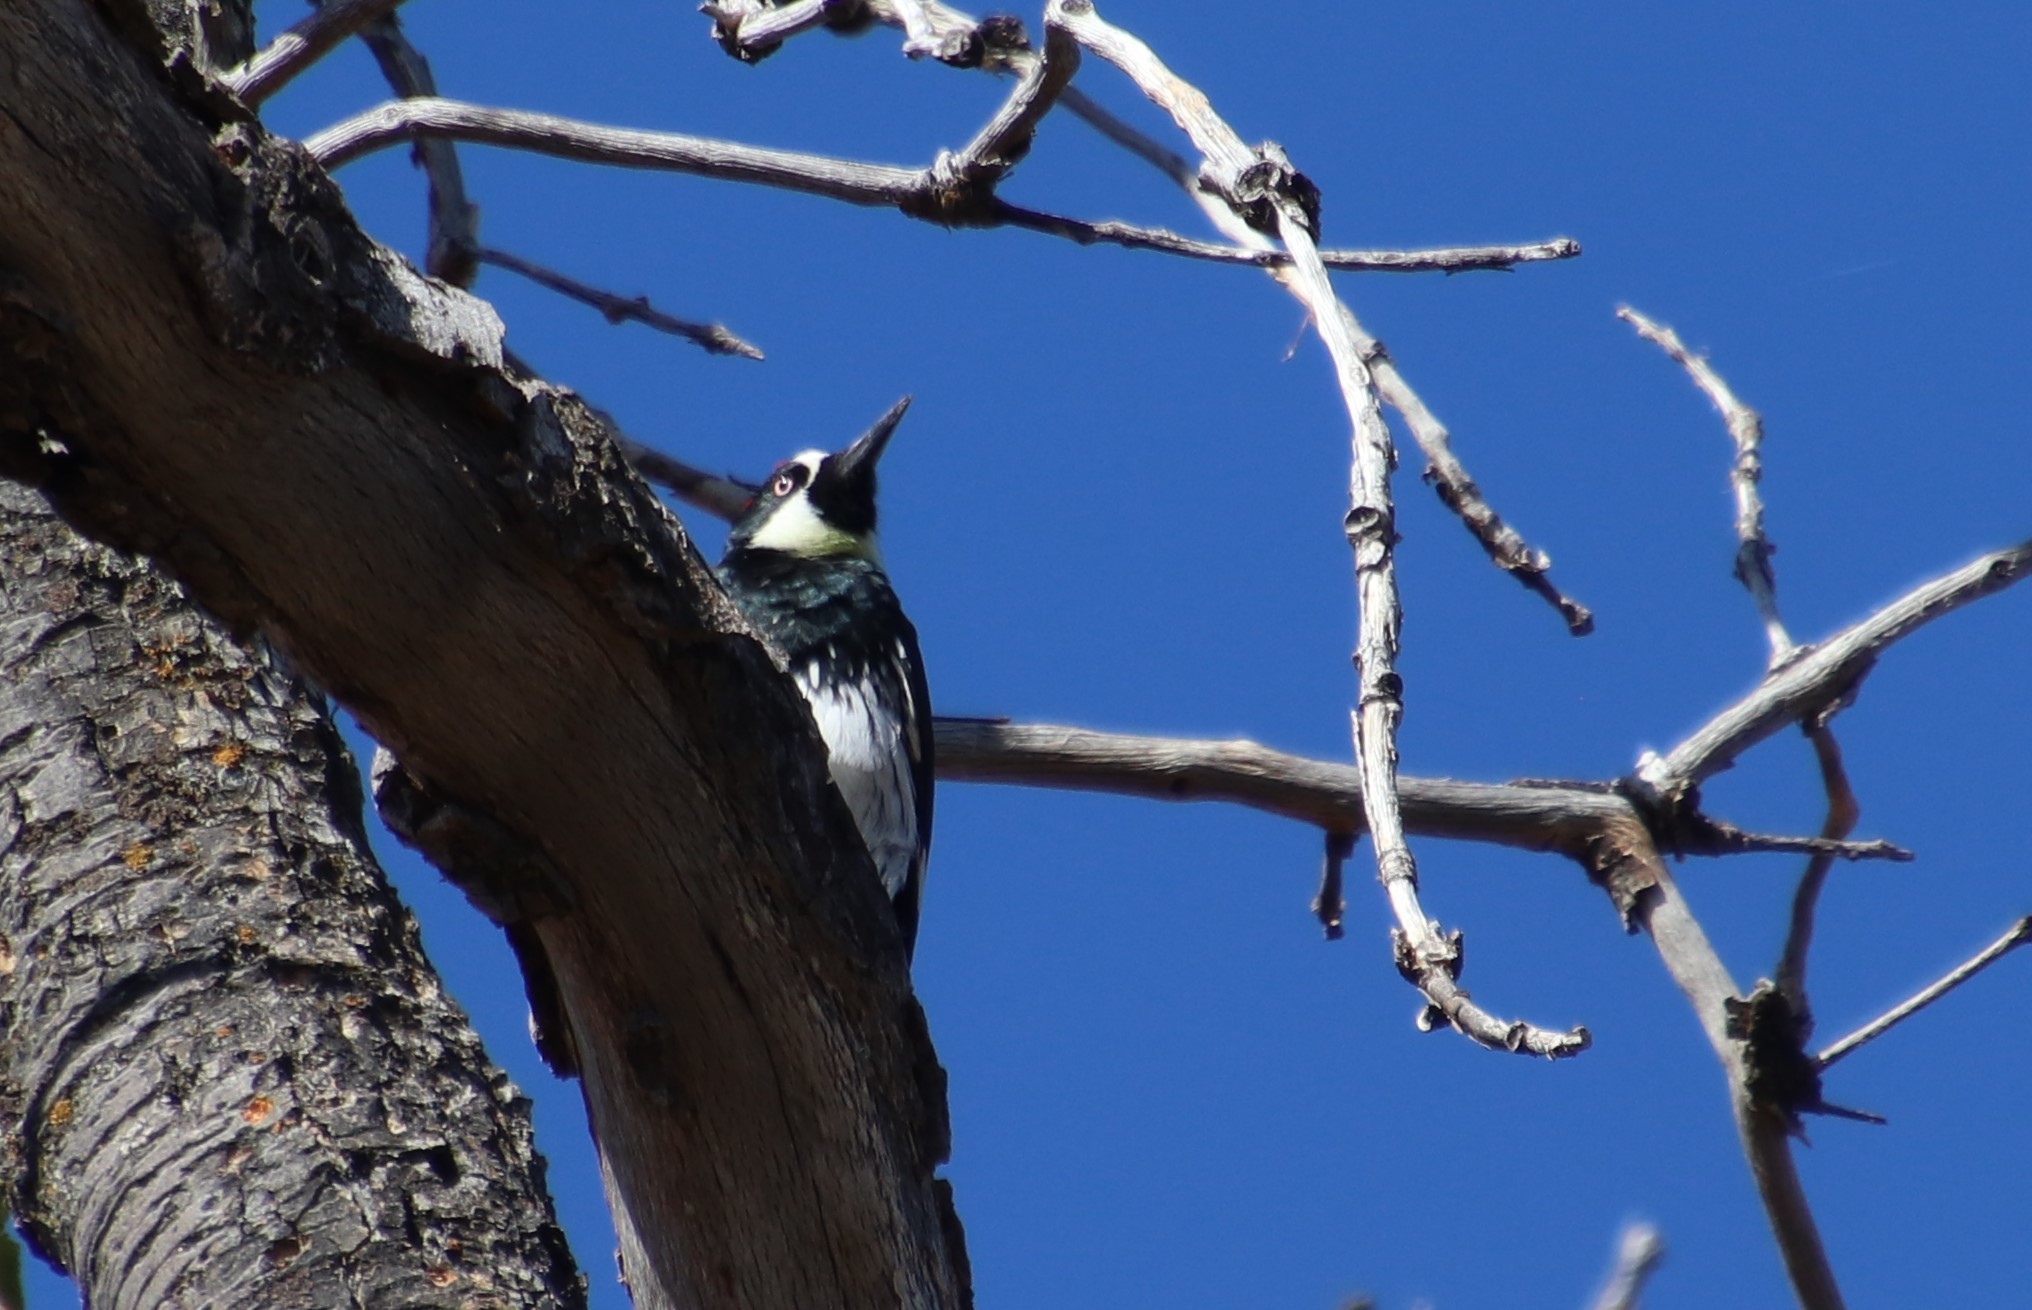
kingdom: Animalia
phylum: Chordata
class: Aves
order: Piciformes
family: Picidae
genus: Melanerpes
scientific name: Melanerpes formicivorus
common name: Acorn woodpecker
